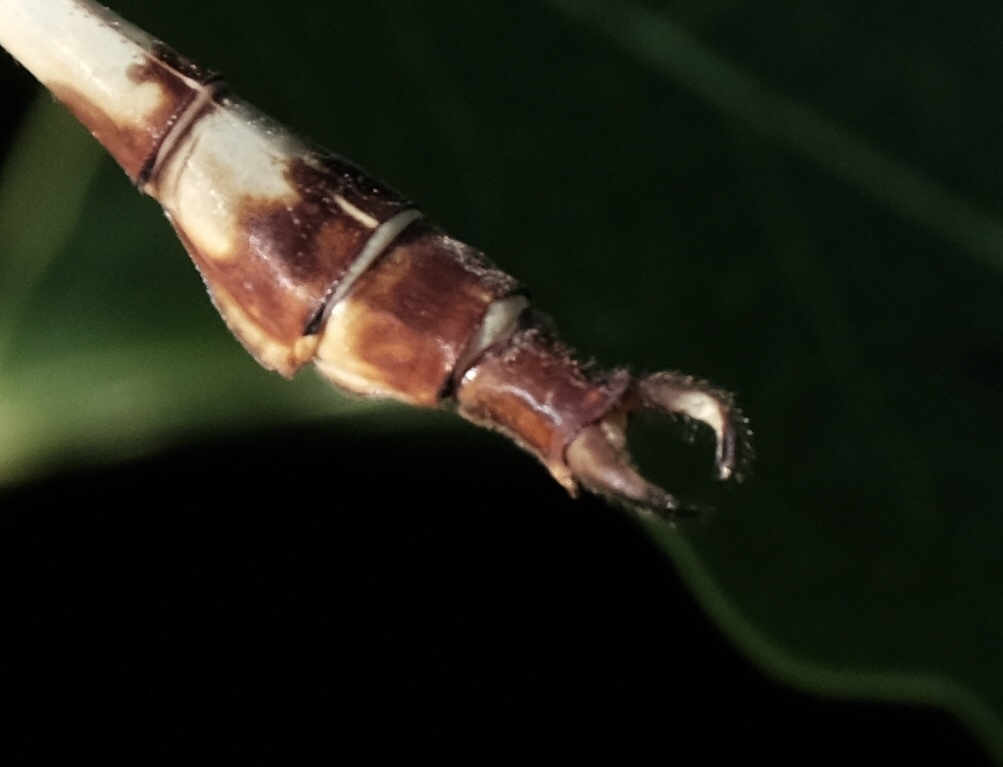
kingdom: Animalia
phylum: Arthropoda
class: Insecta
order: Odonata
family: Gomphidae
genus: Aphylla
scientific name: Aphylla angustifolia
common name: Broad-striped forceptail
